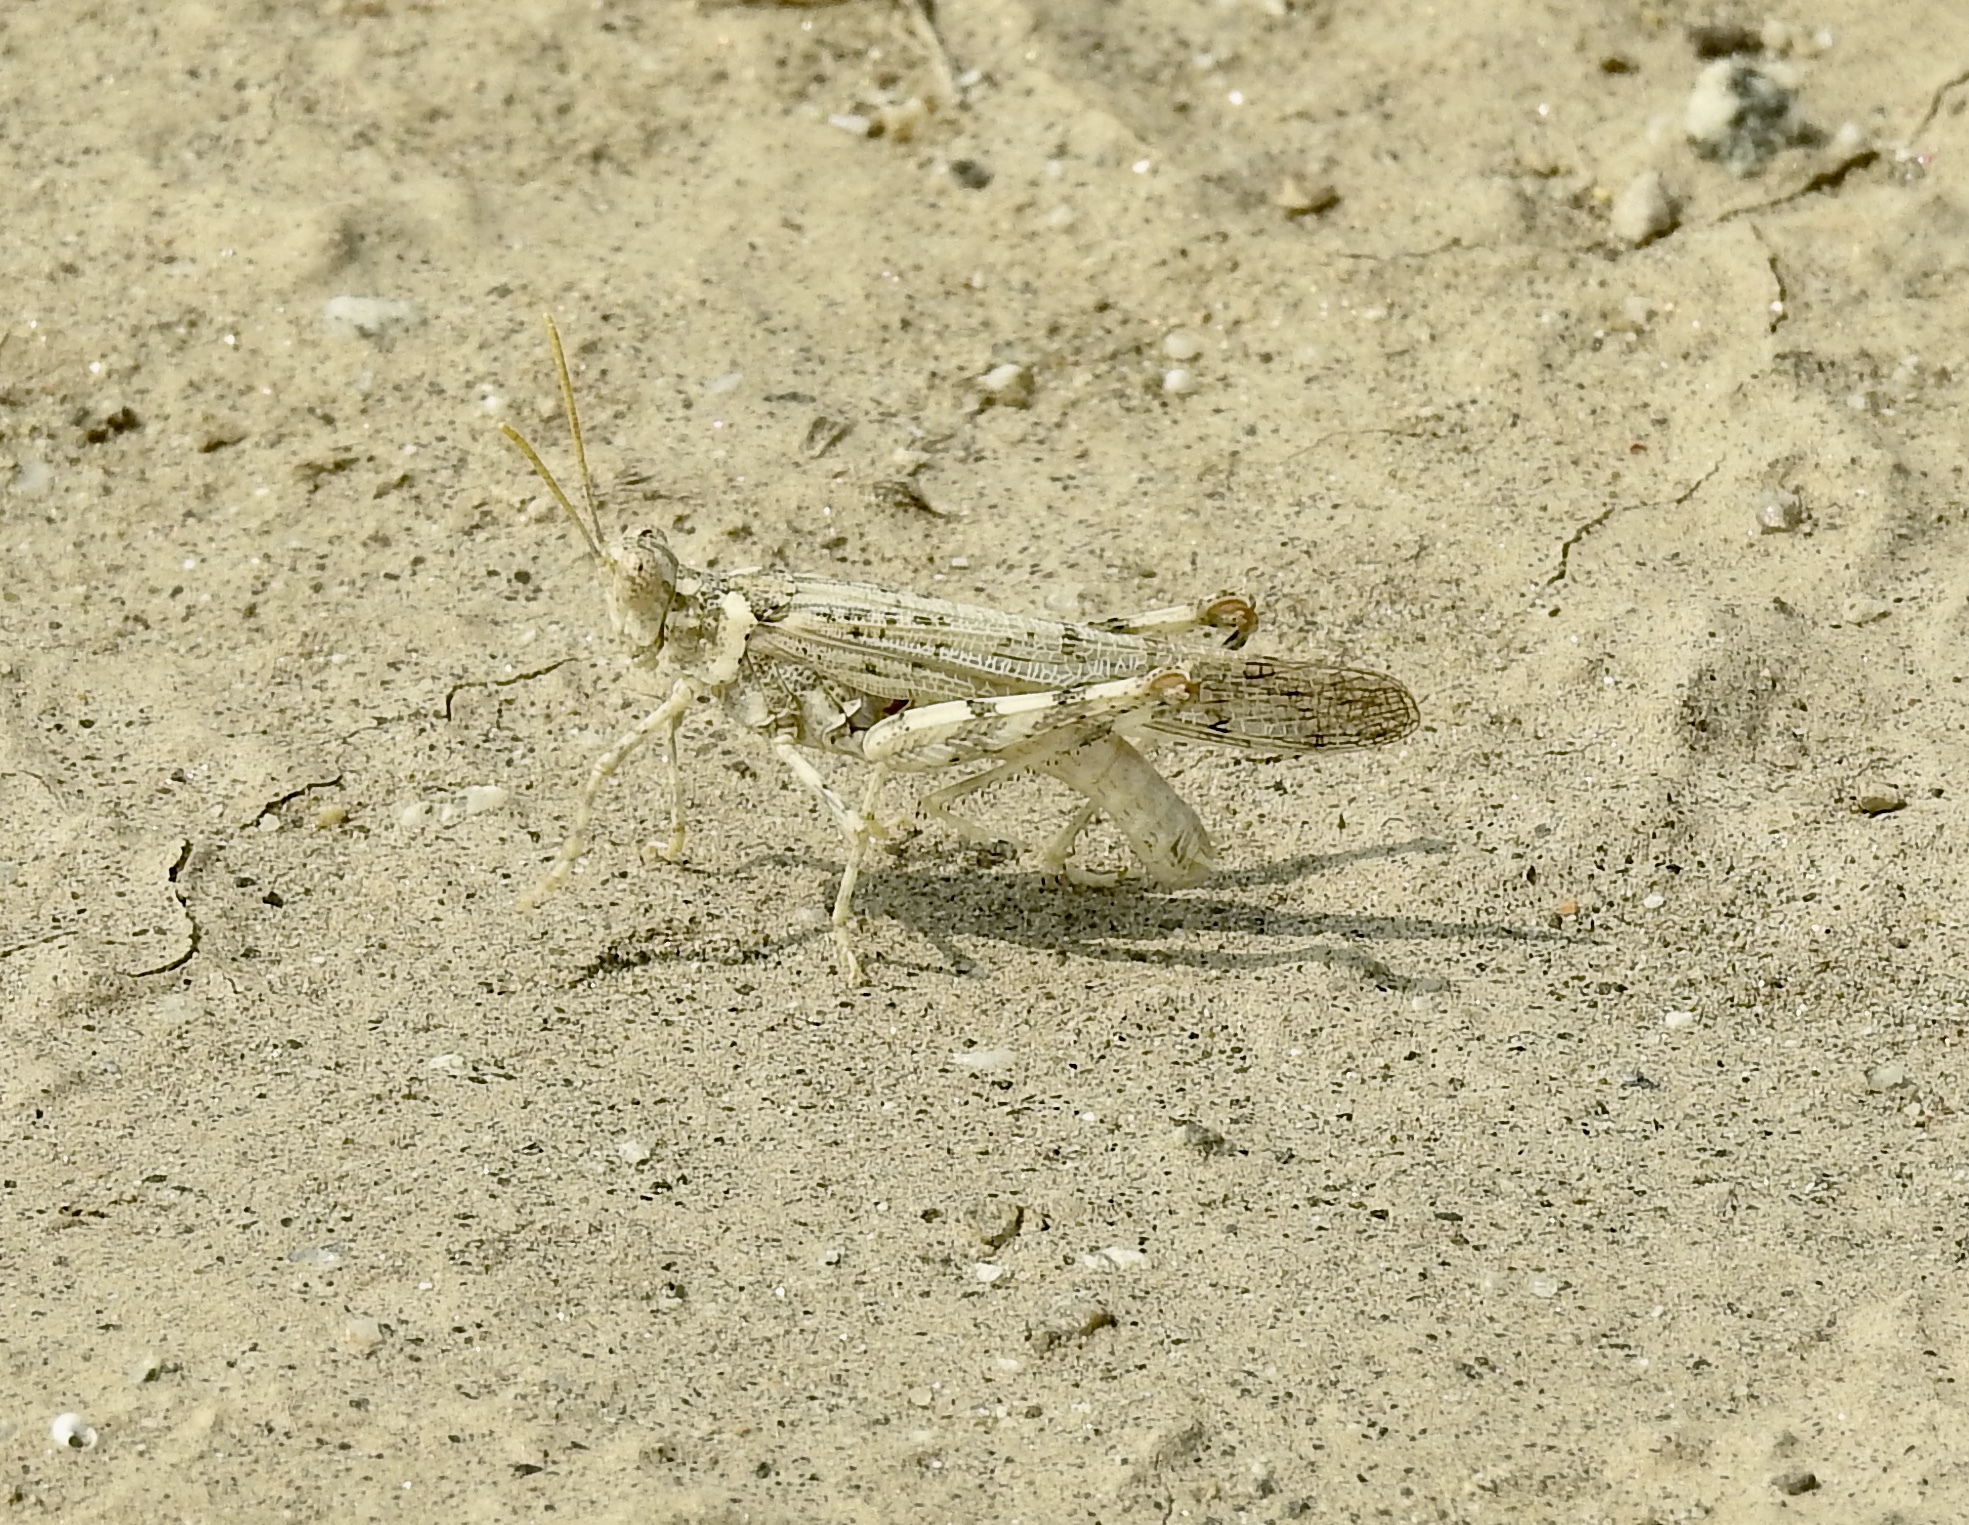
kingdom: Animalia
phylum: Arthropoda
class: Insecta
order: Orthoptera
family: Acrididae
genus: Anconia
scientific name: Anconia integra
